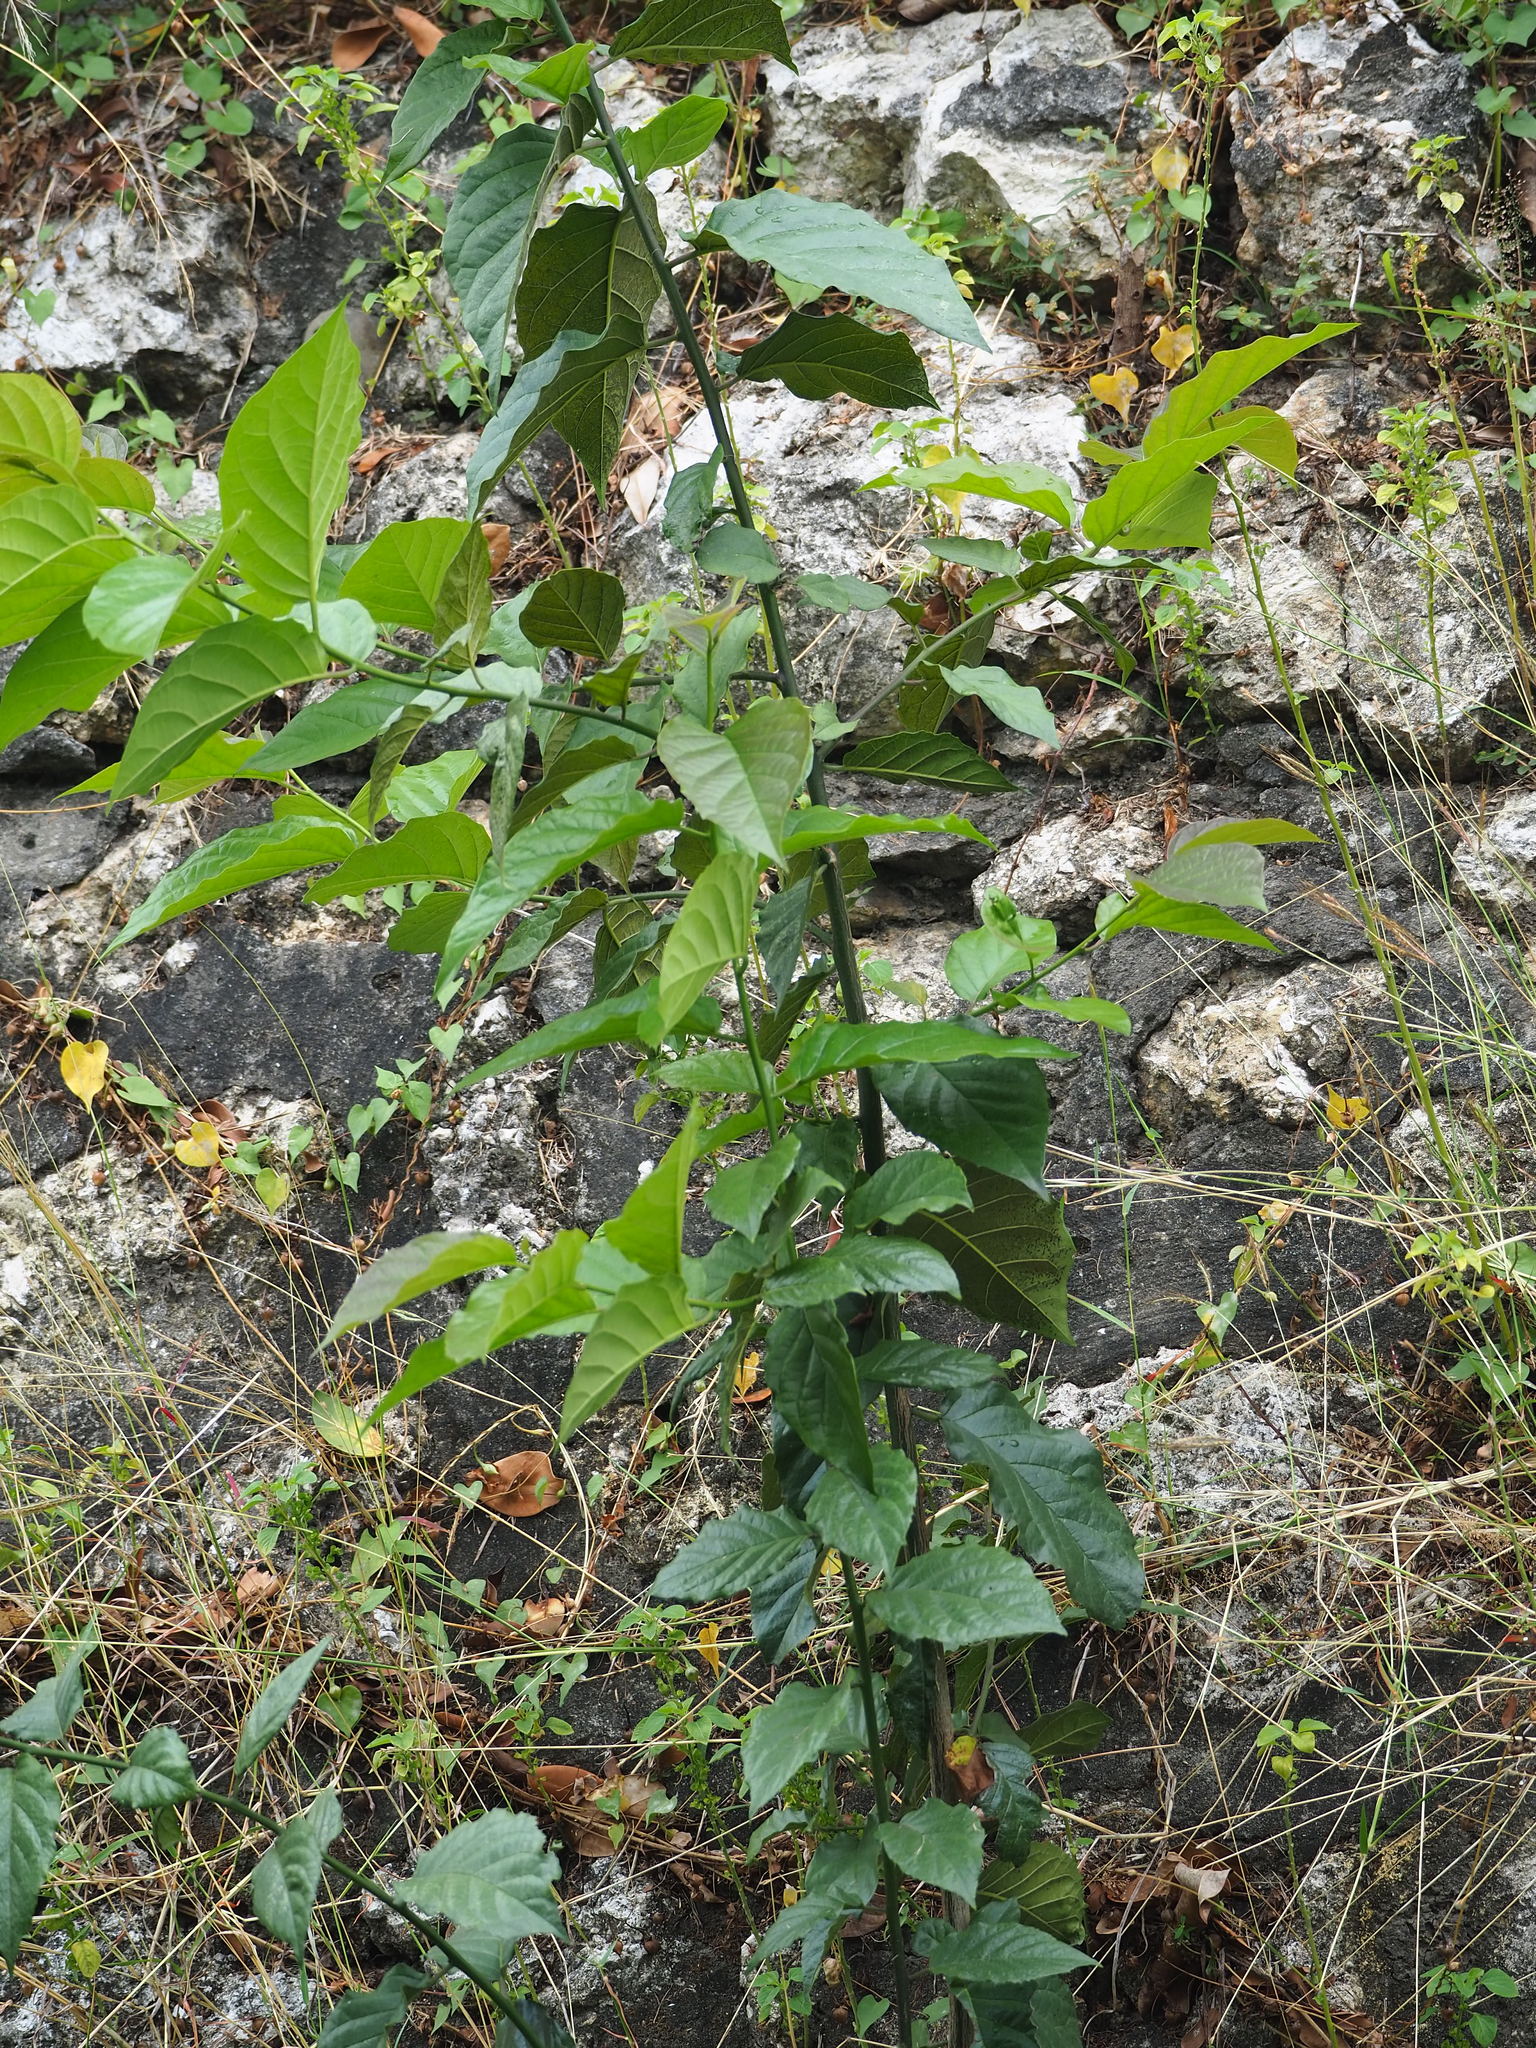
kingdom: Plantae
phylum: Tracheophyta
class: Magnoliopsida
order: Boraginales
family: Ehretiaceae
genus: Ehretia
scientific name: Ehretia resinosa
